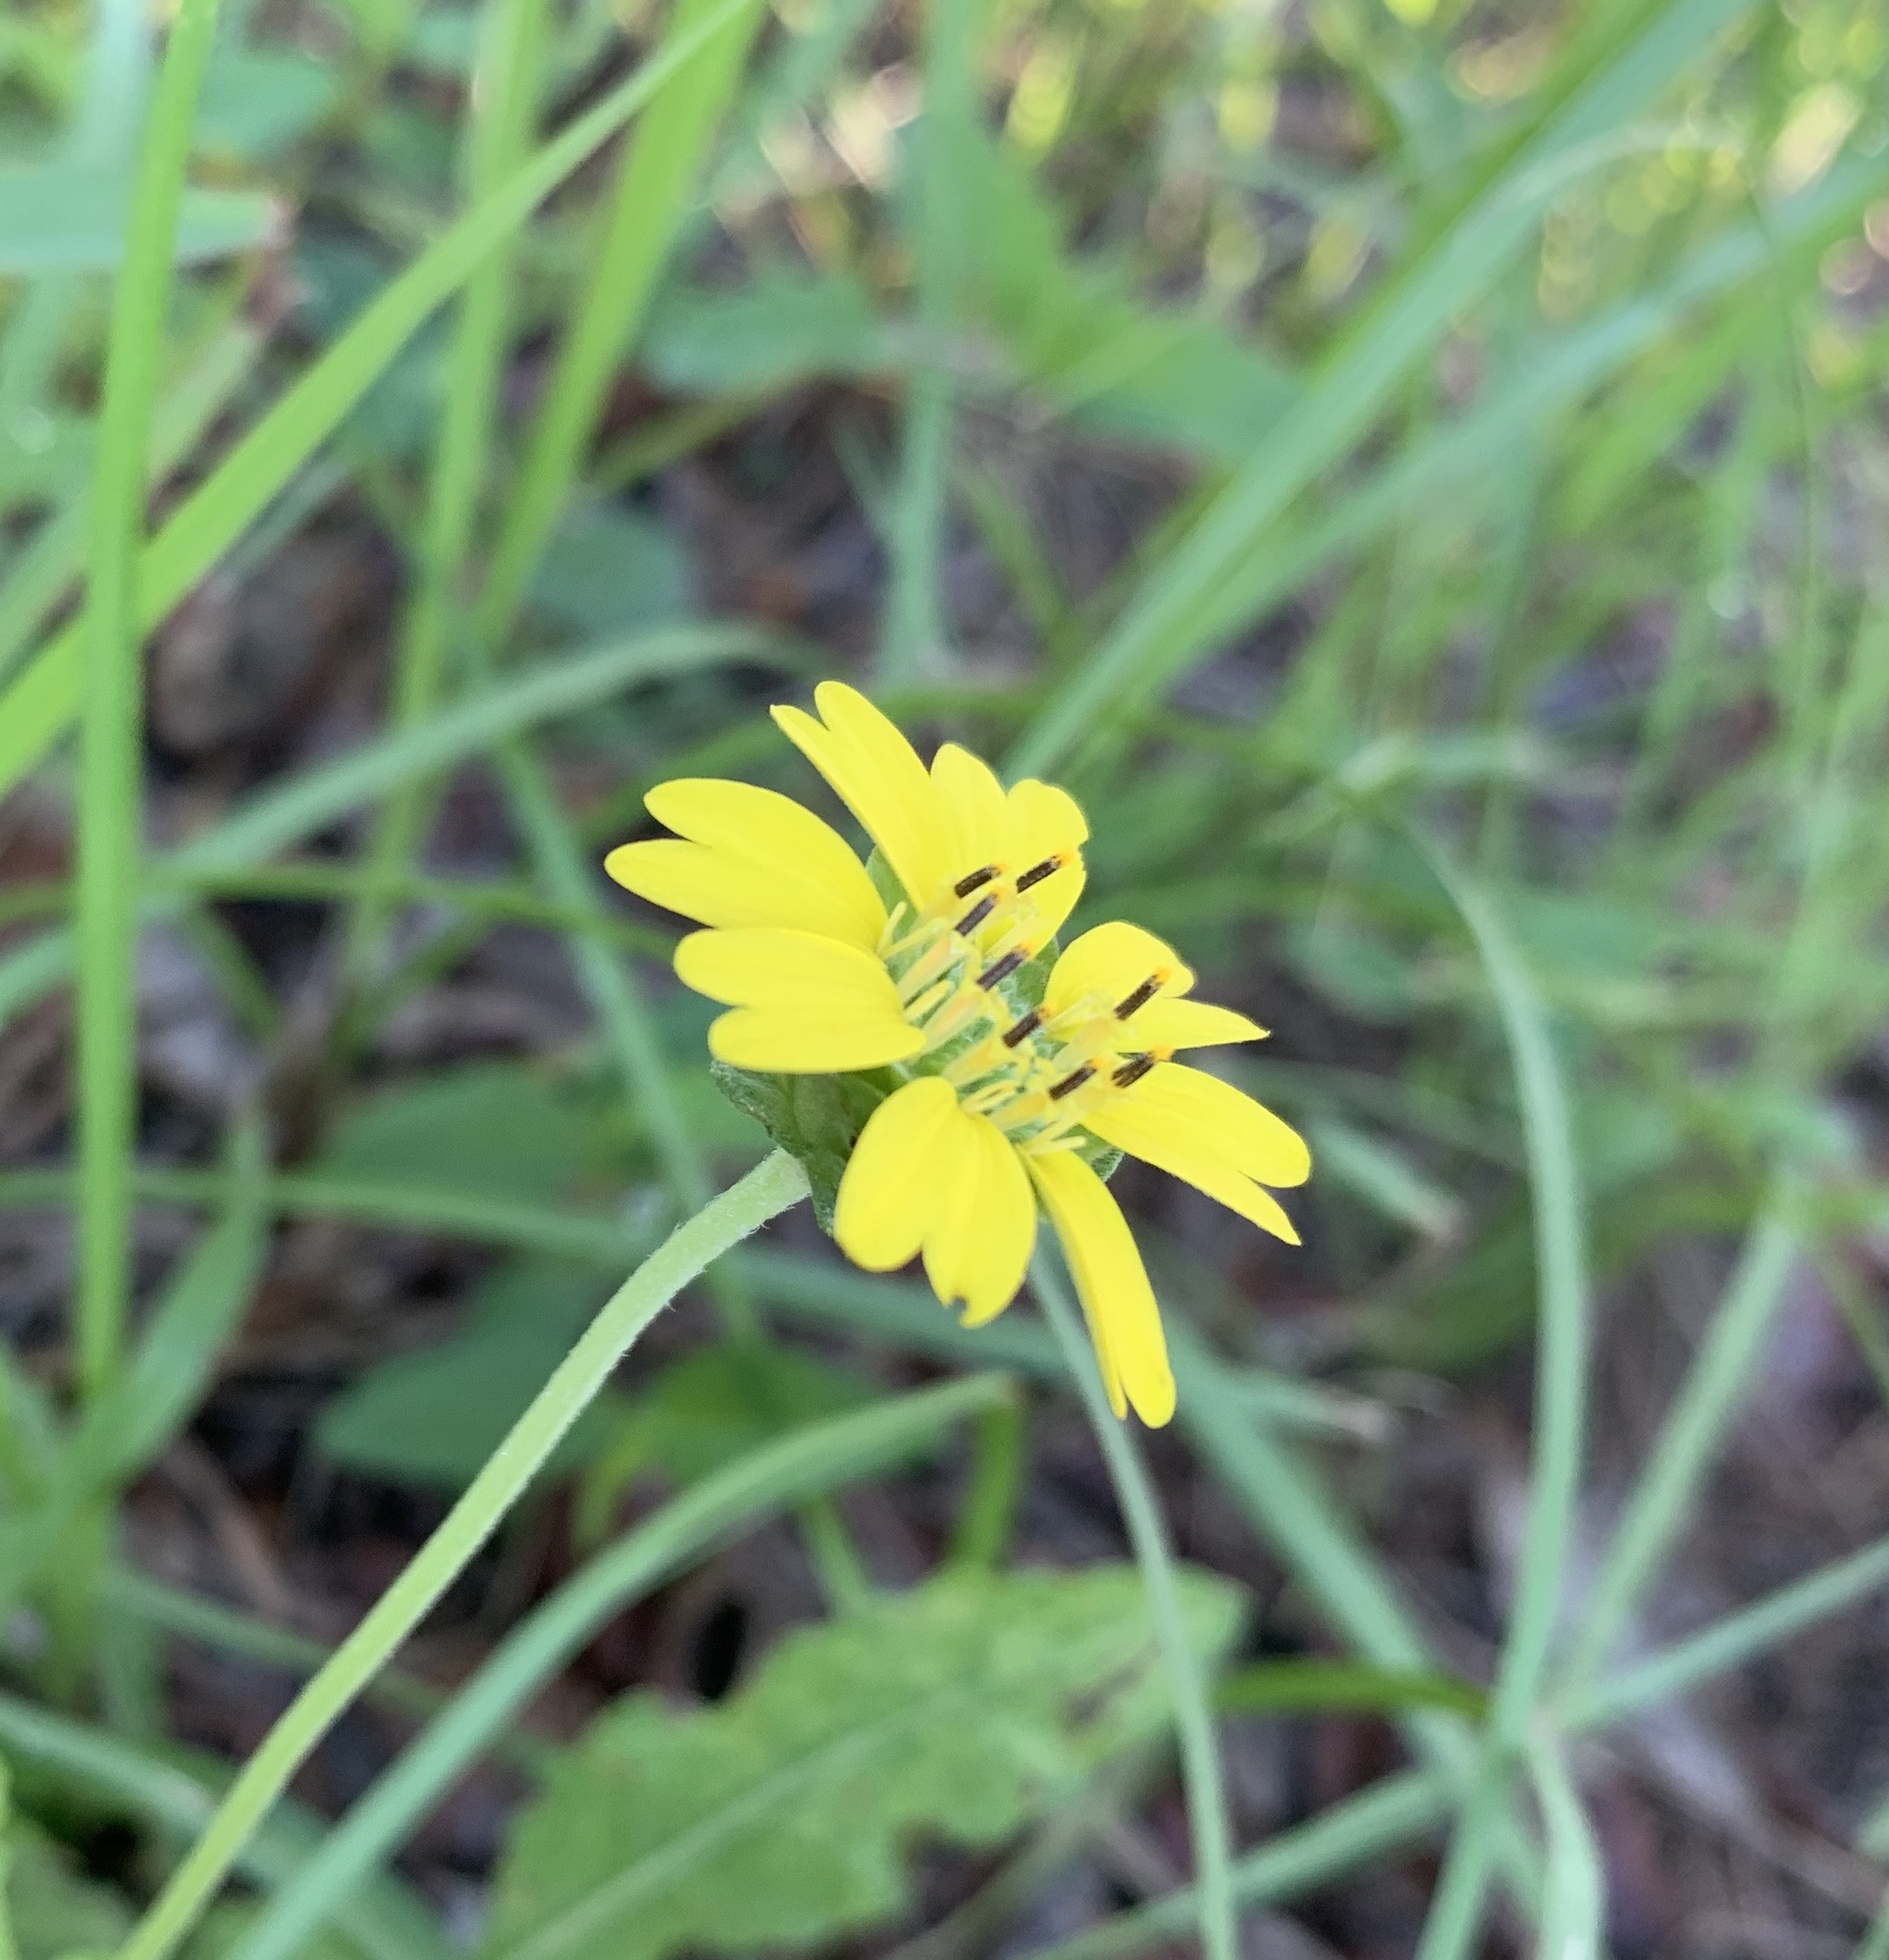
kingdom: Plantae
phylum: Tracheophyta
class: Magnoliopsida
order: Asterales
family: Asteraceae
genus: Berlandiera
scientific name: Berlandiera subacaulis
